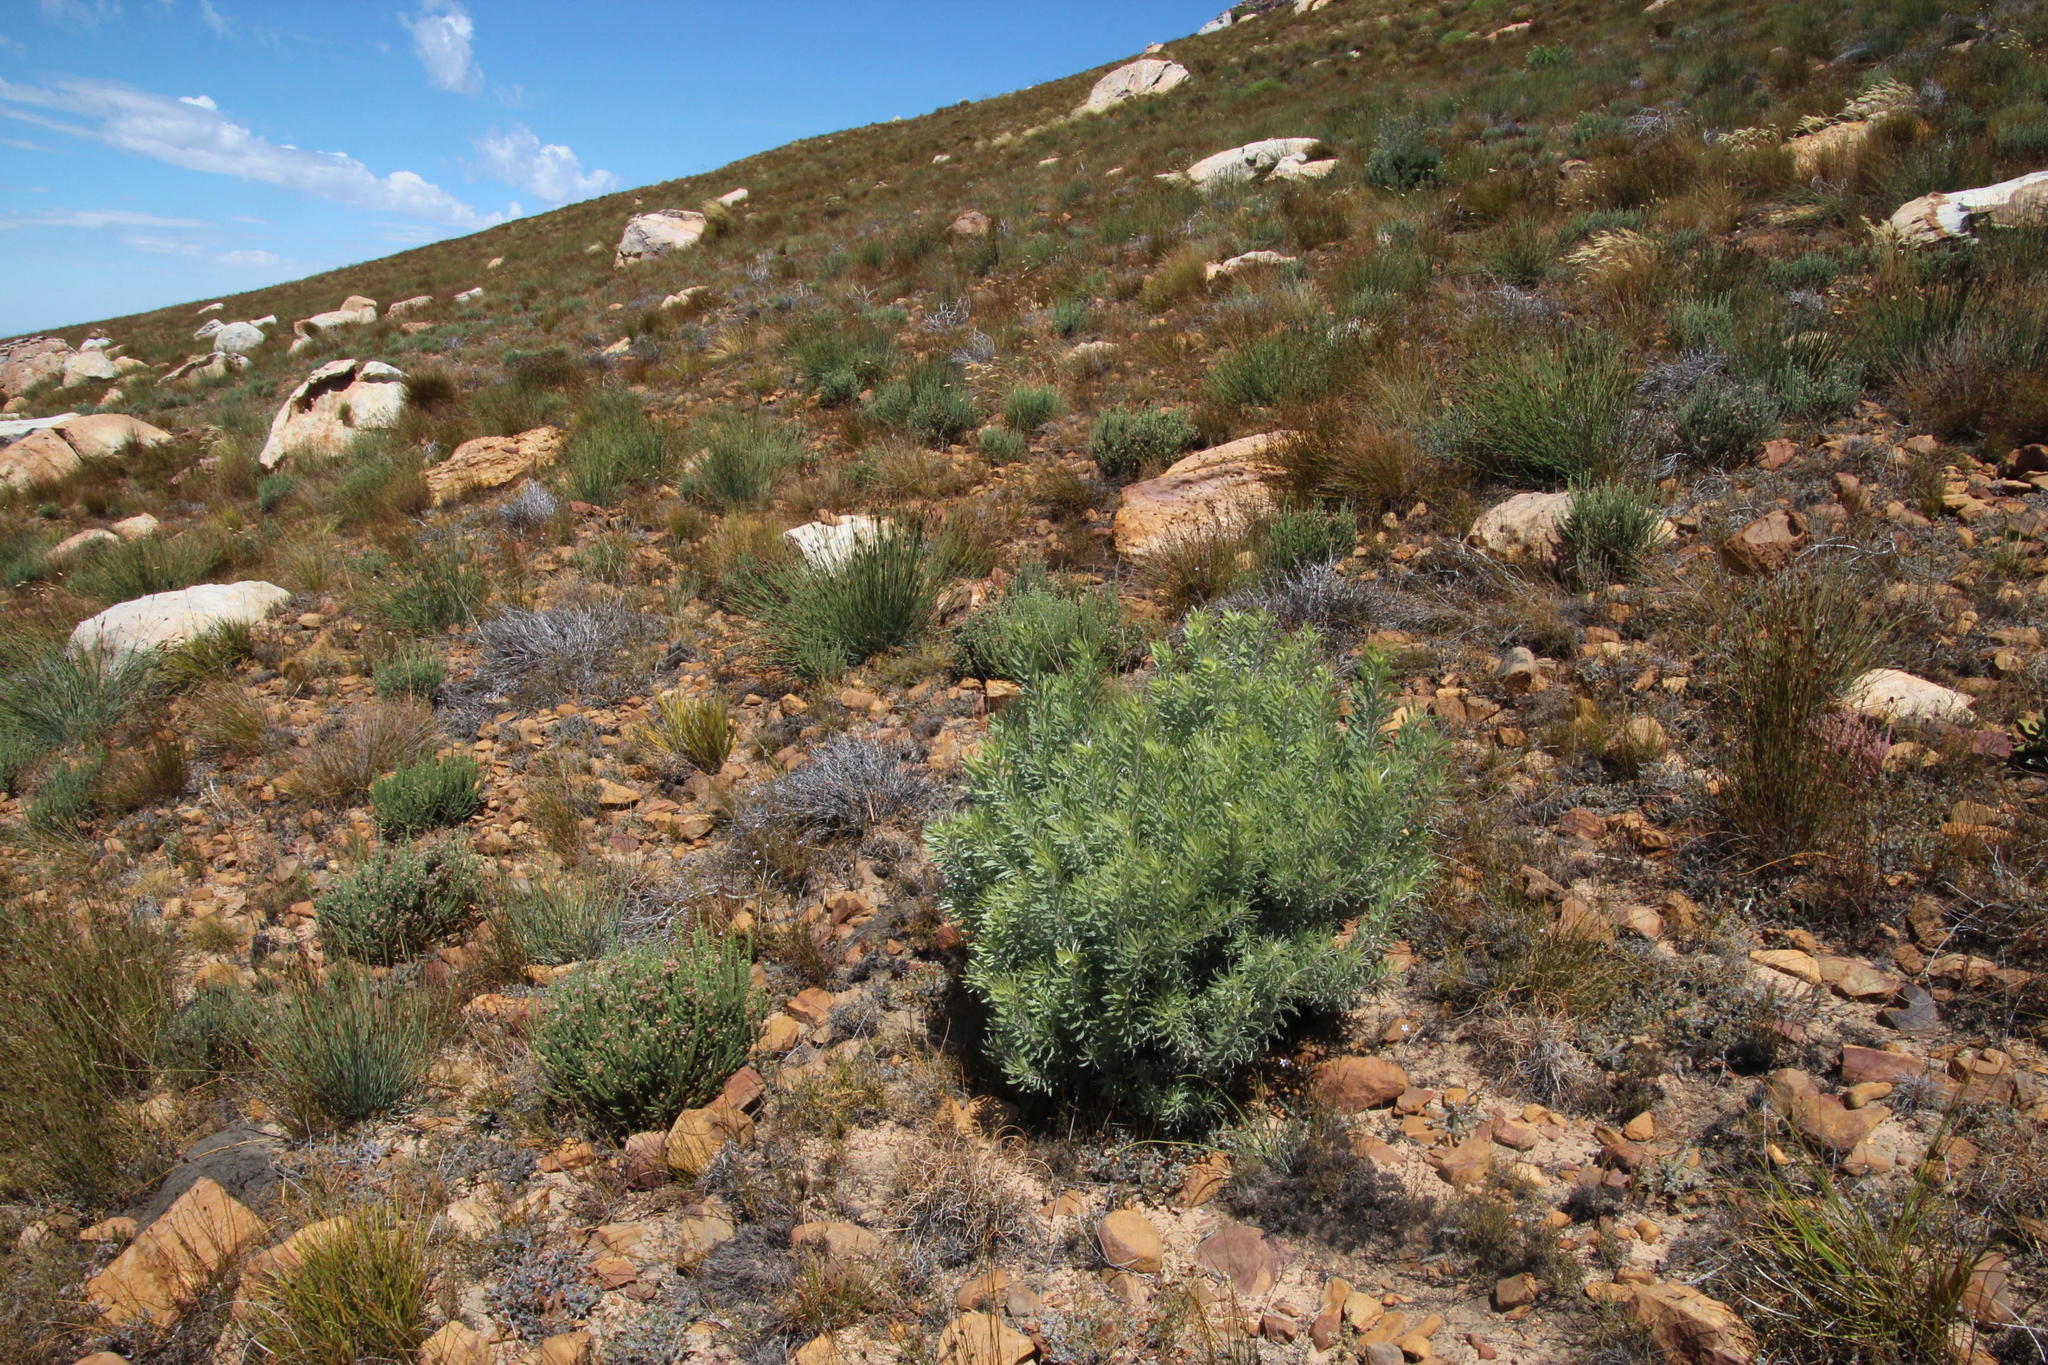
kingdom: Plantae
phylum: Tracheophyta
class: Magnoliopsida
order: Proteales
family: Proteaceae
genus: Leucadendron
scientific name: Leucadendron rubrum
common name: Spinning top
